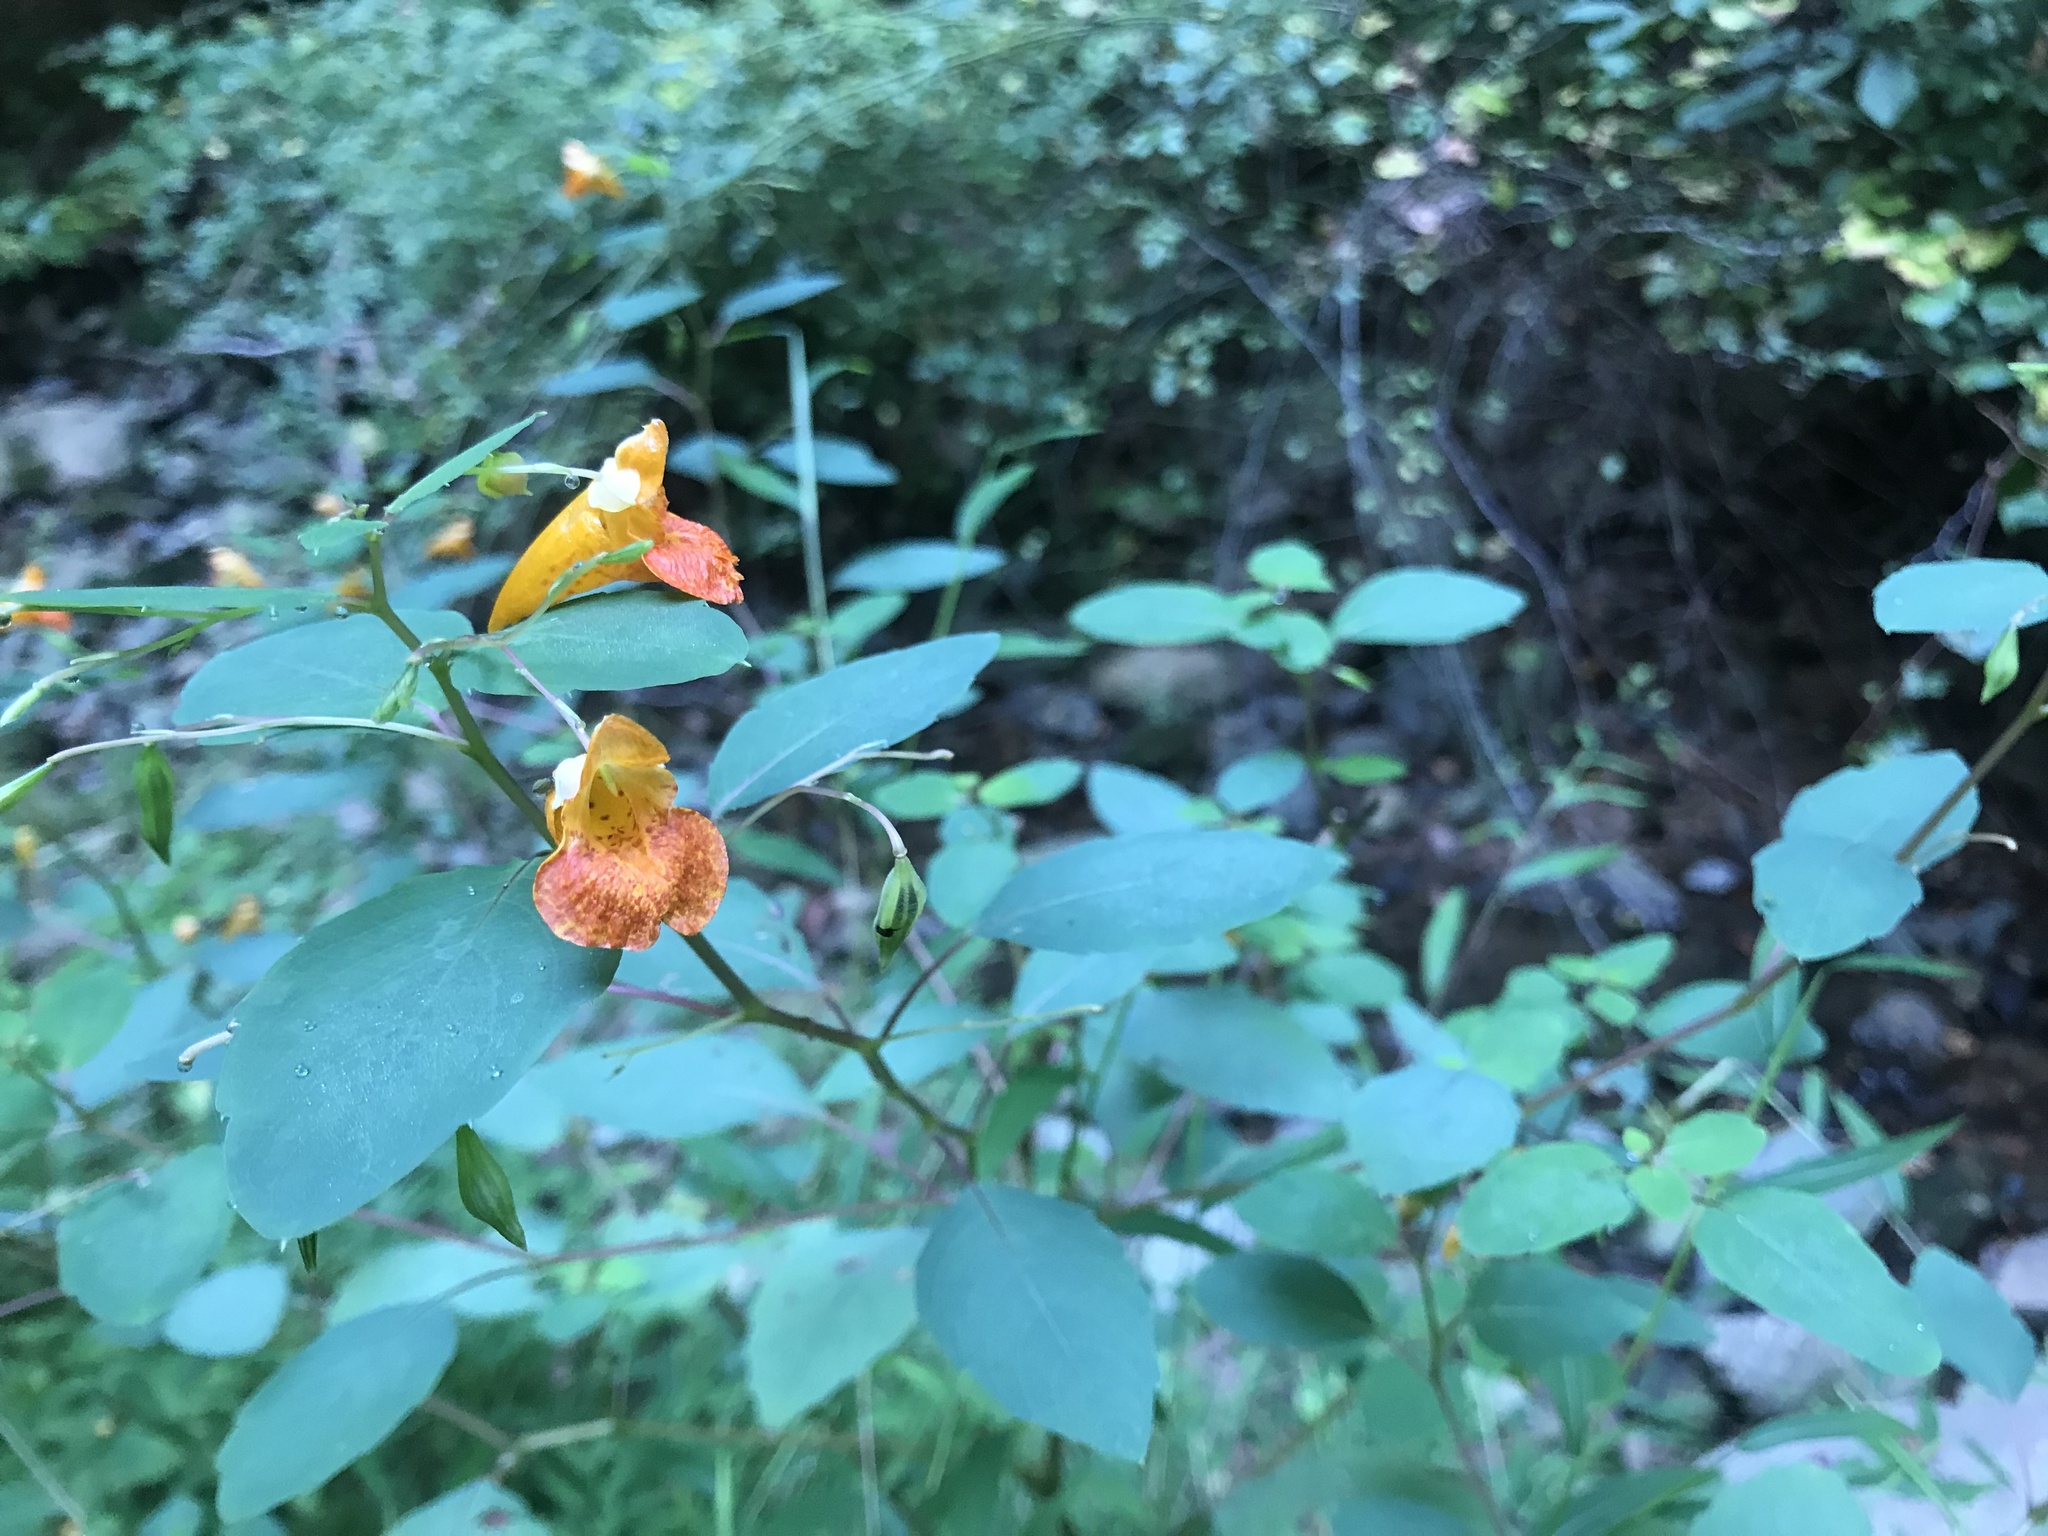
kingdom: Plantae
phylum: Tracheophyta
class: Magnoliopsida
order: Ericales
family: Balsaminaceae
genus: Impatiens
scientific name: Impatiens capensis
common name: Orange balsam
